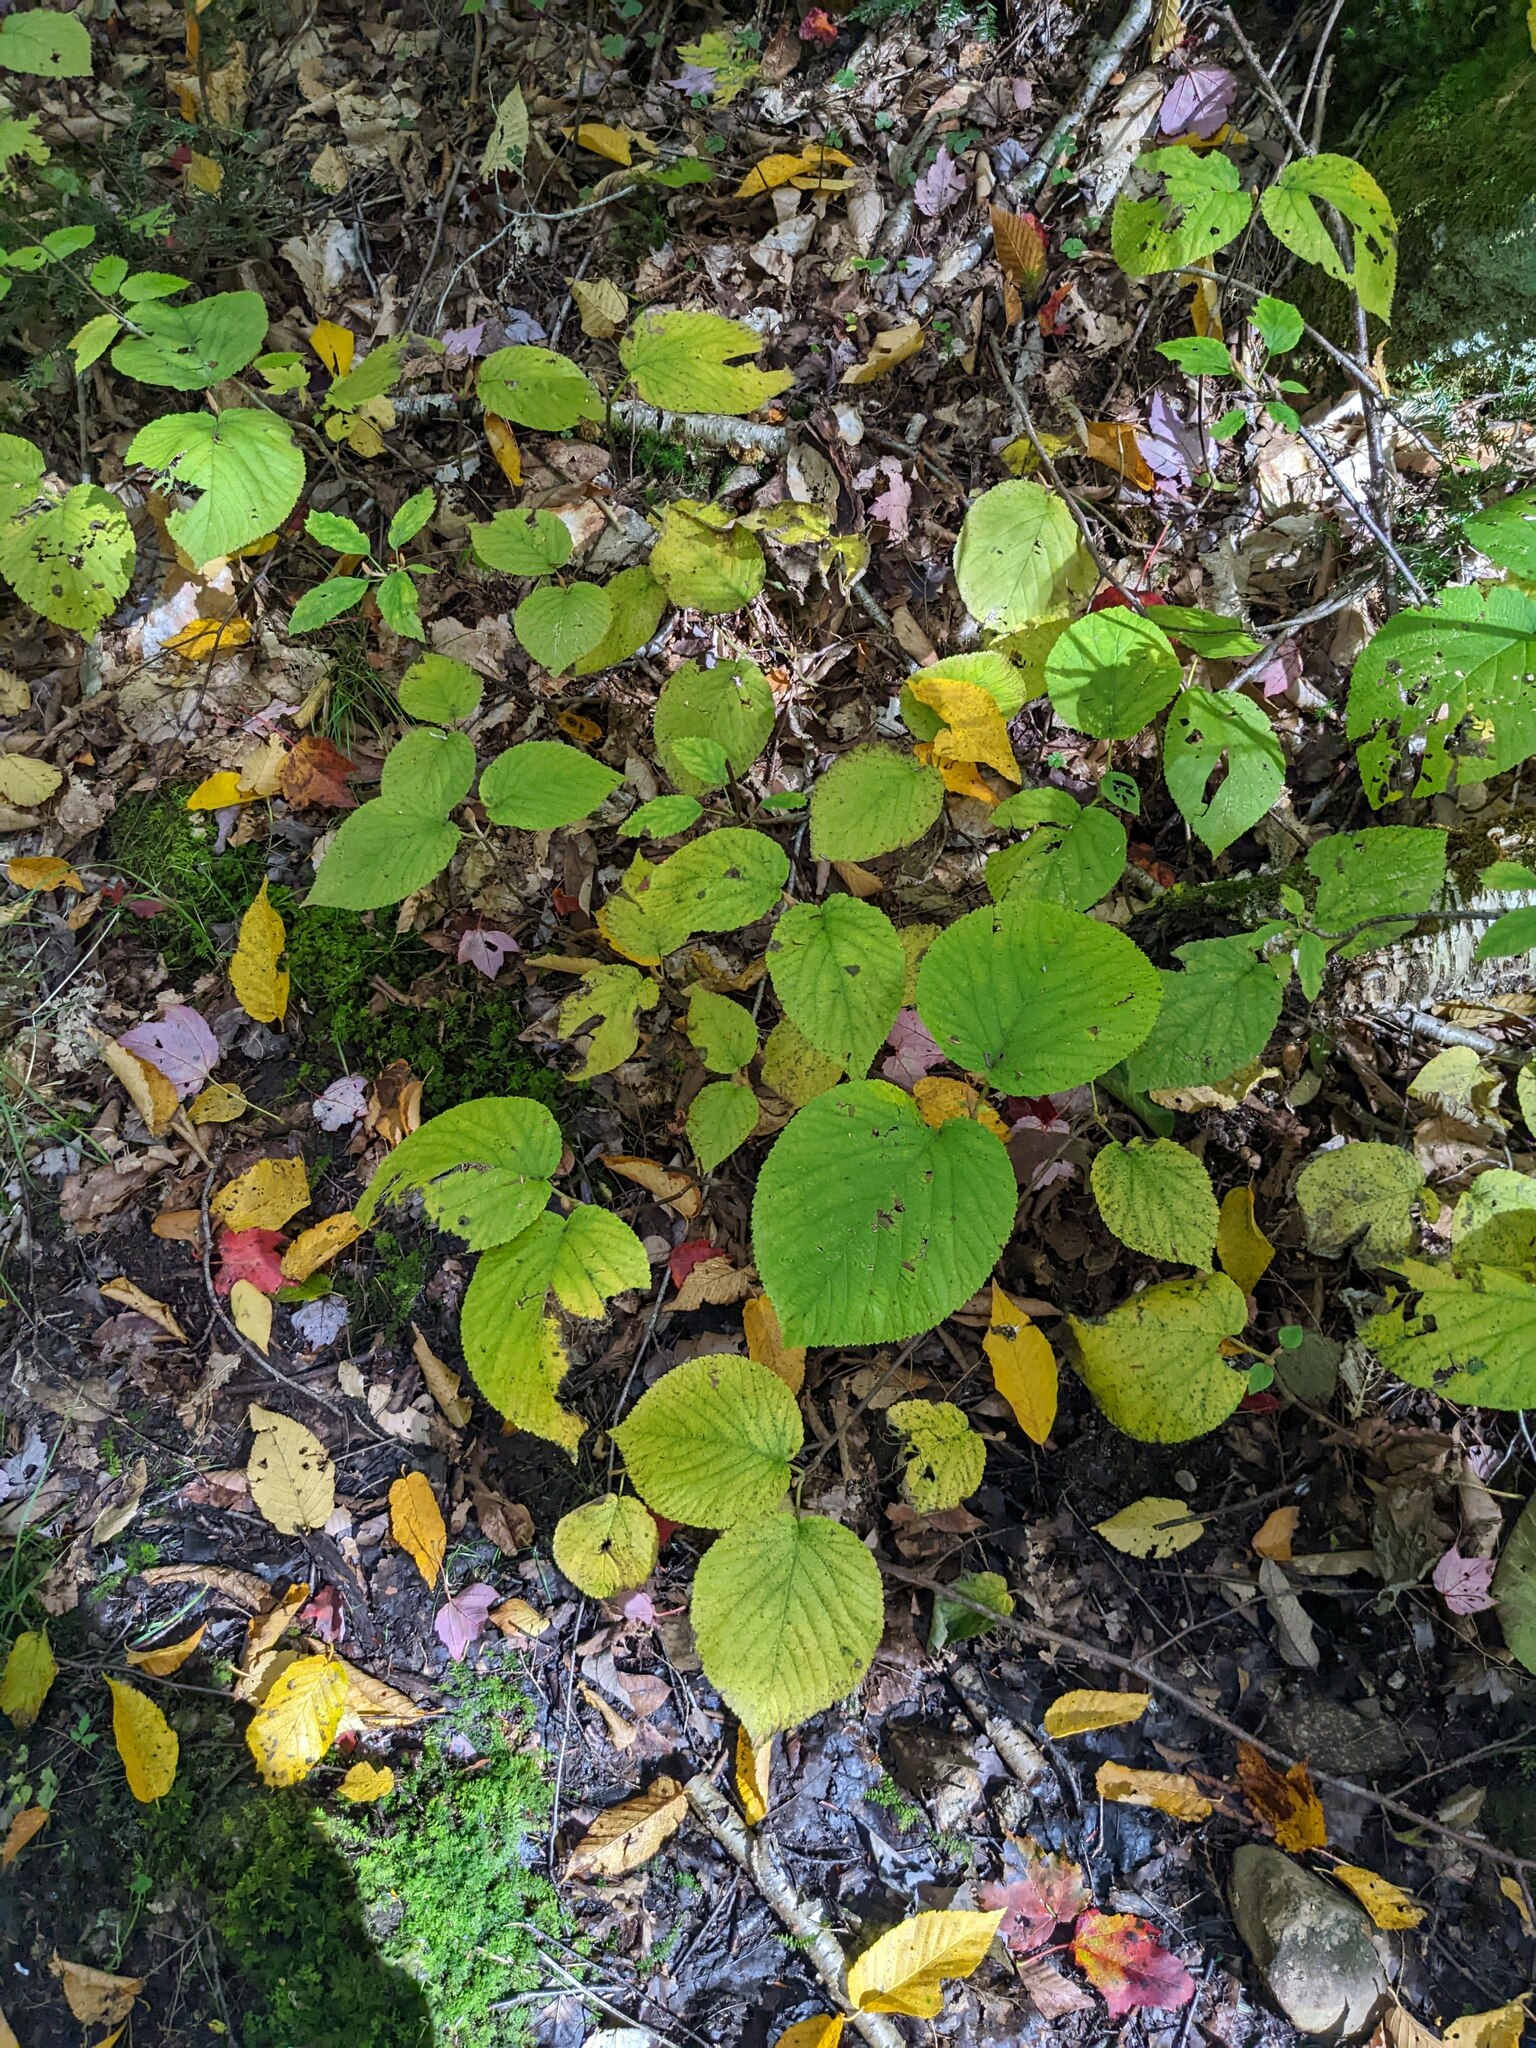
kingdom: Plantae
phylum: Tracheophyta
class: Magnoliopsida
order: Dipsacales
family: Viburnaceae
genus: Viburnum
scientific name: Viburnum lantanoides
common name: Hobblebush
